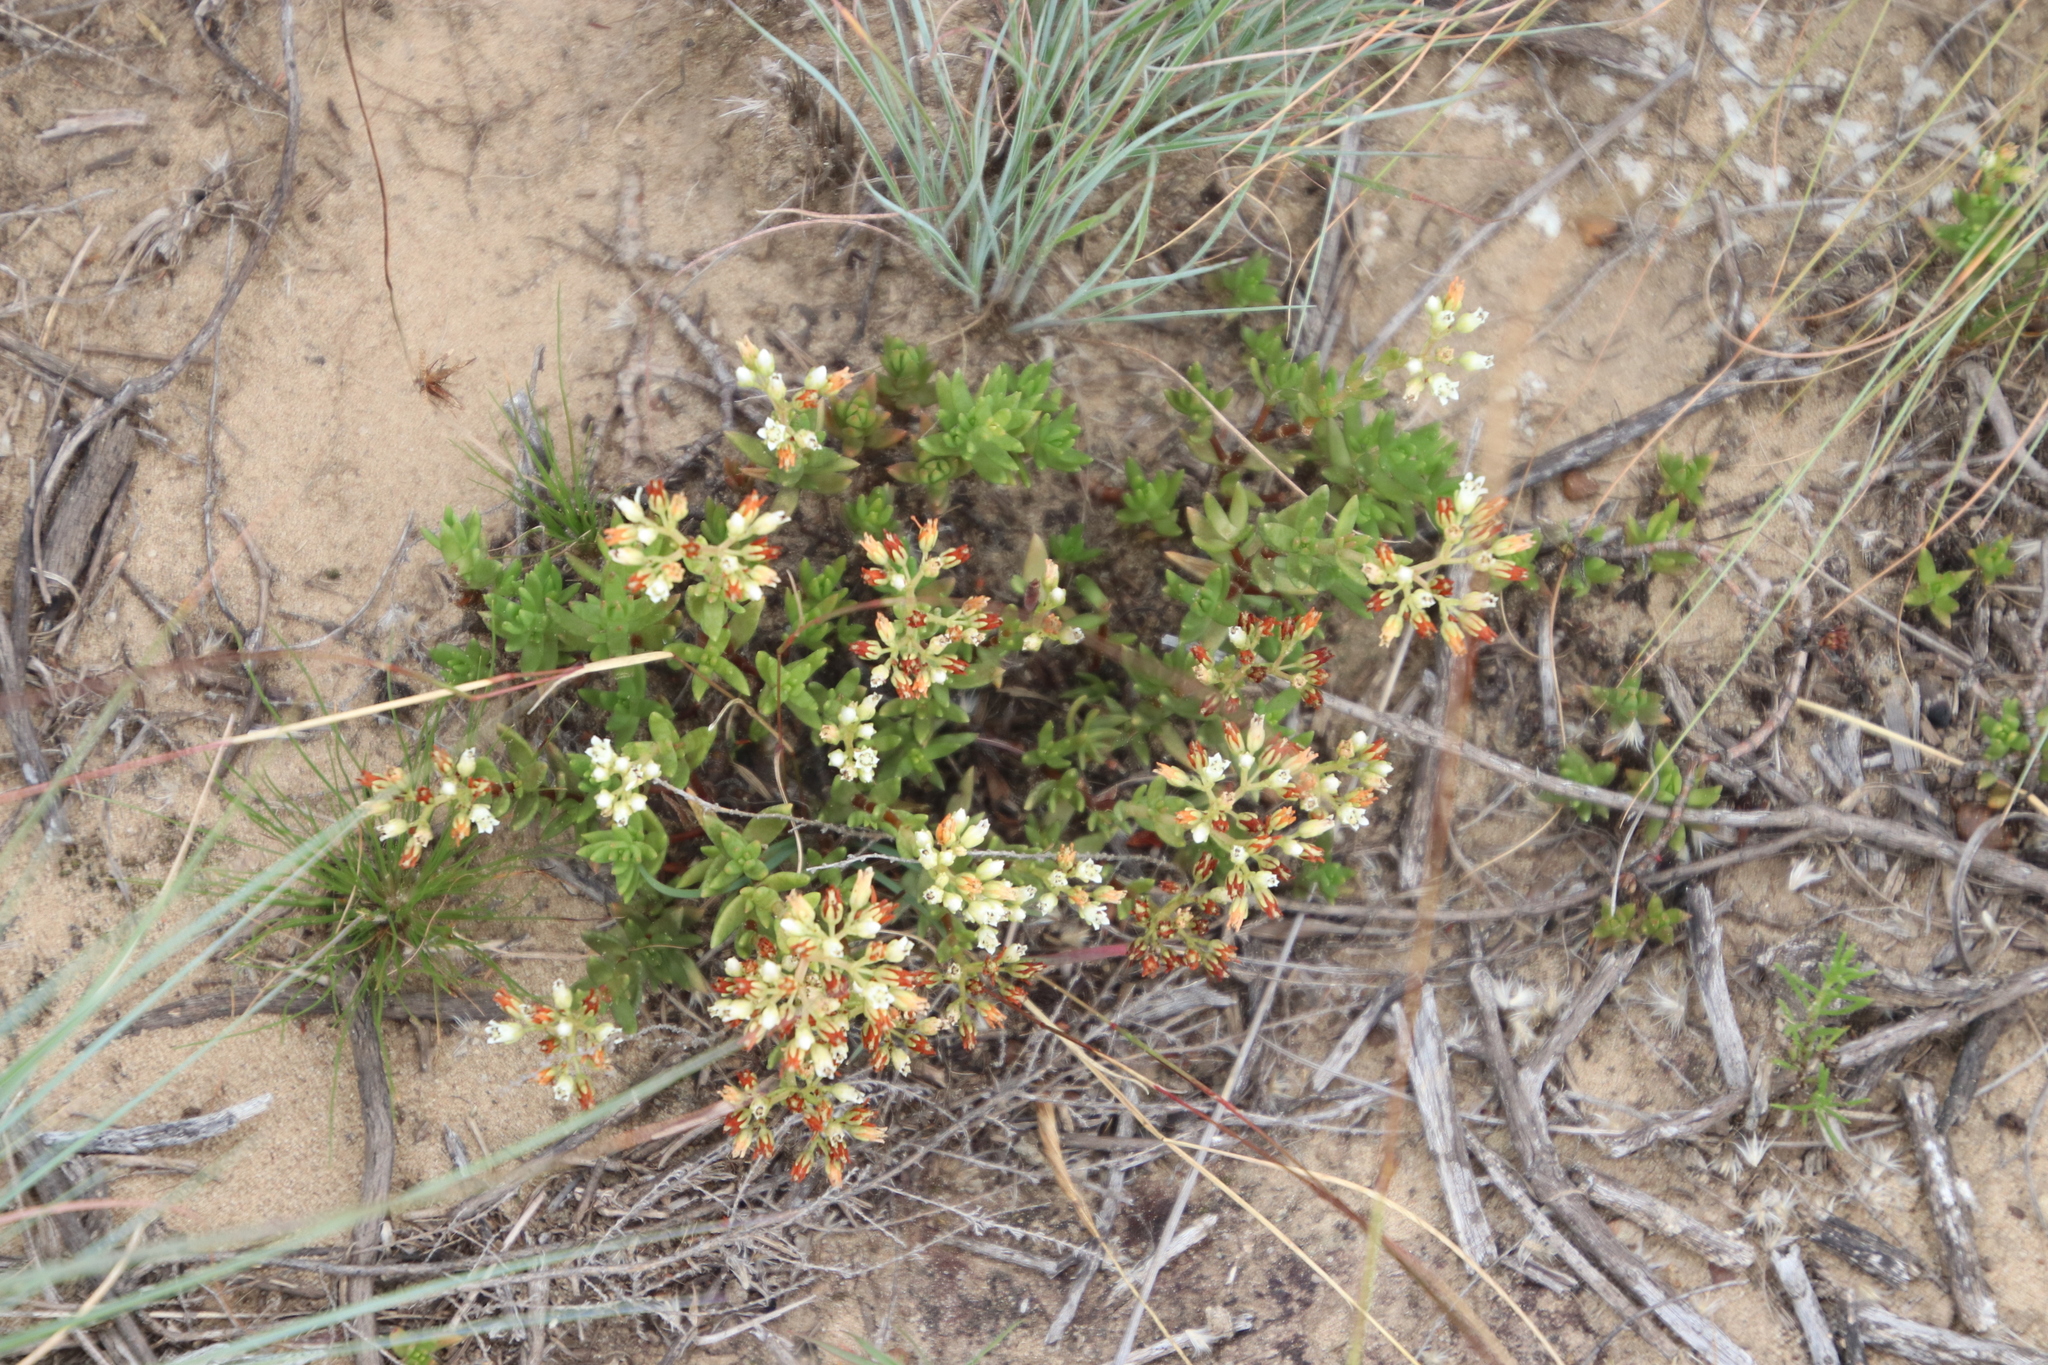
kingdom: Plantae
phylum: Tracheophyta
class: Magnoliopsida
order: Saxifragales
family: Crassulaceae
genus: Crassula
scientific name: Crassula dependens
